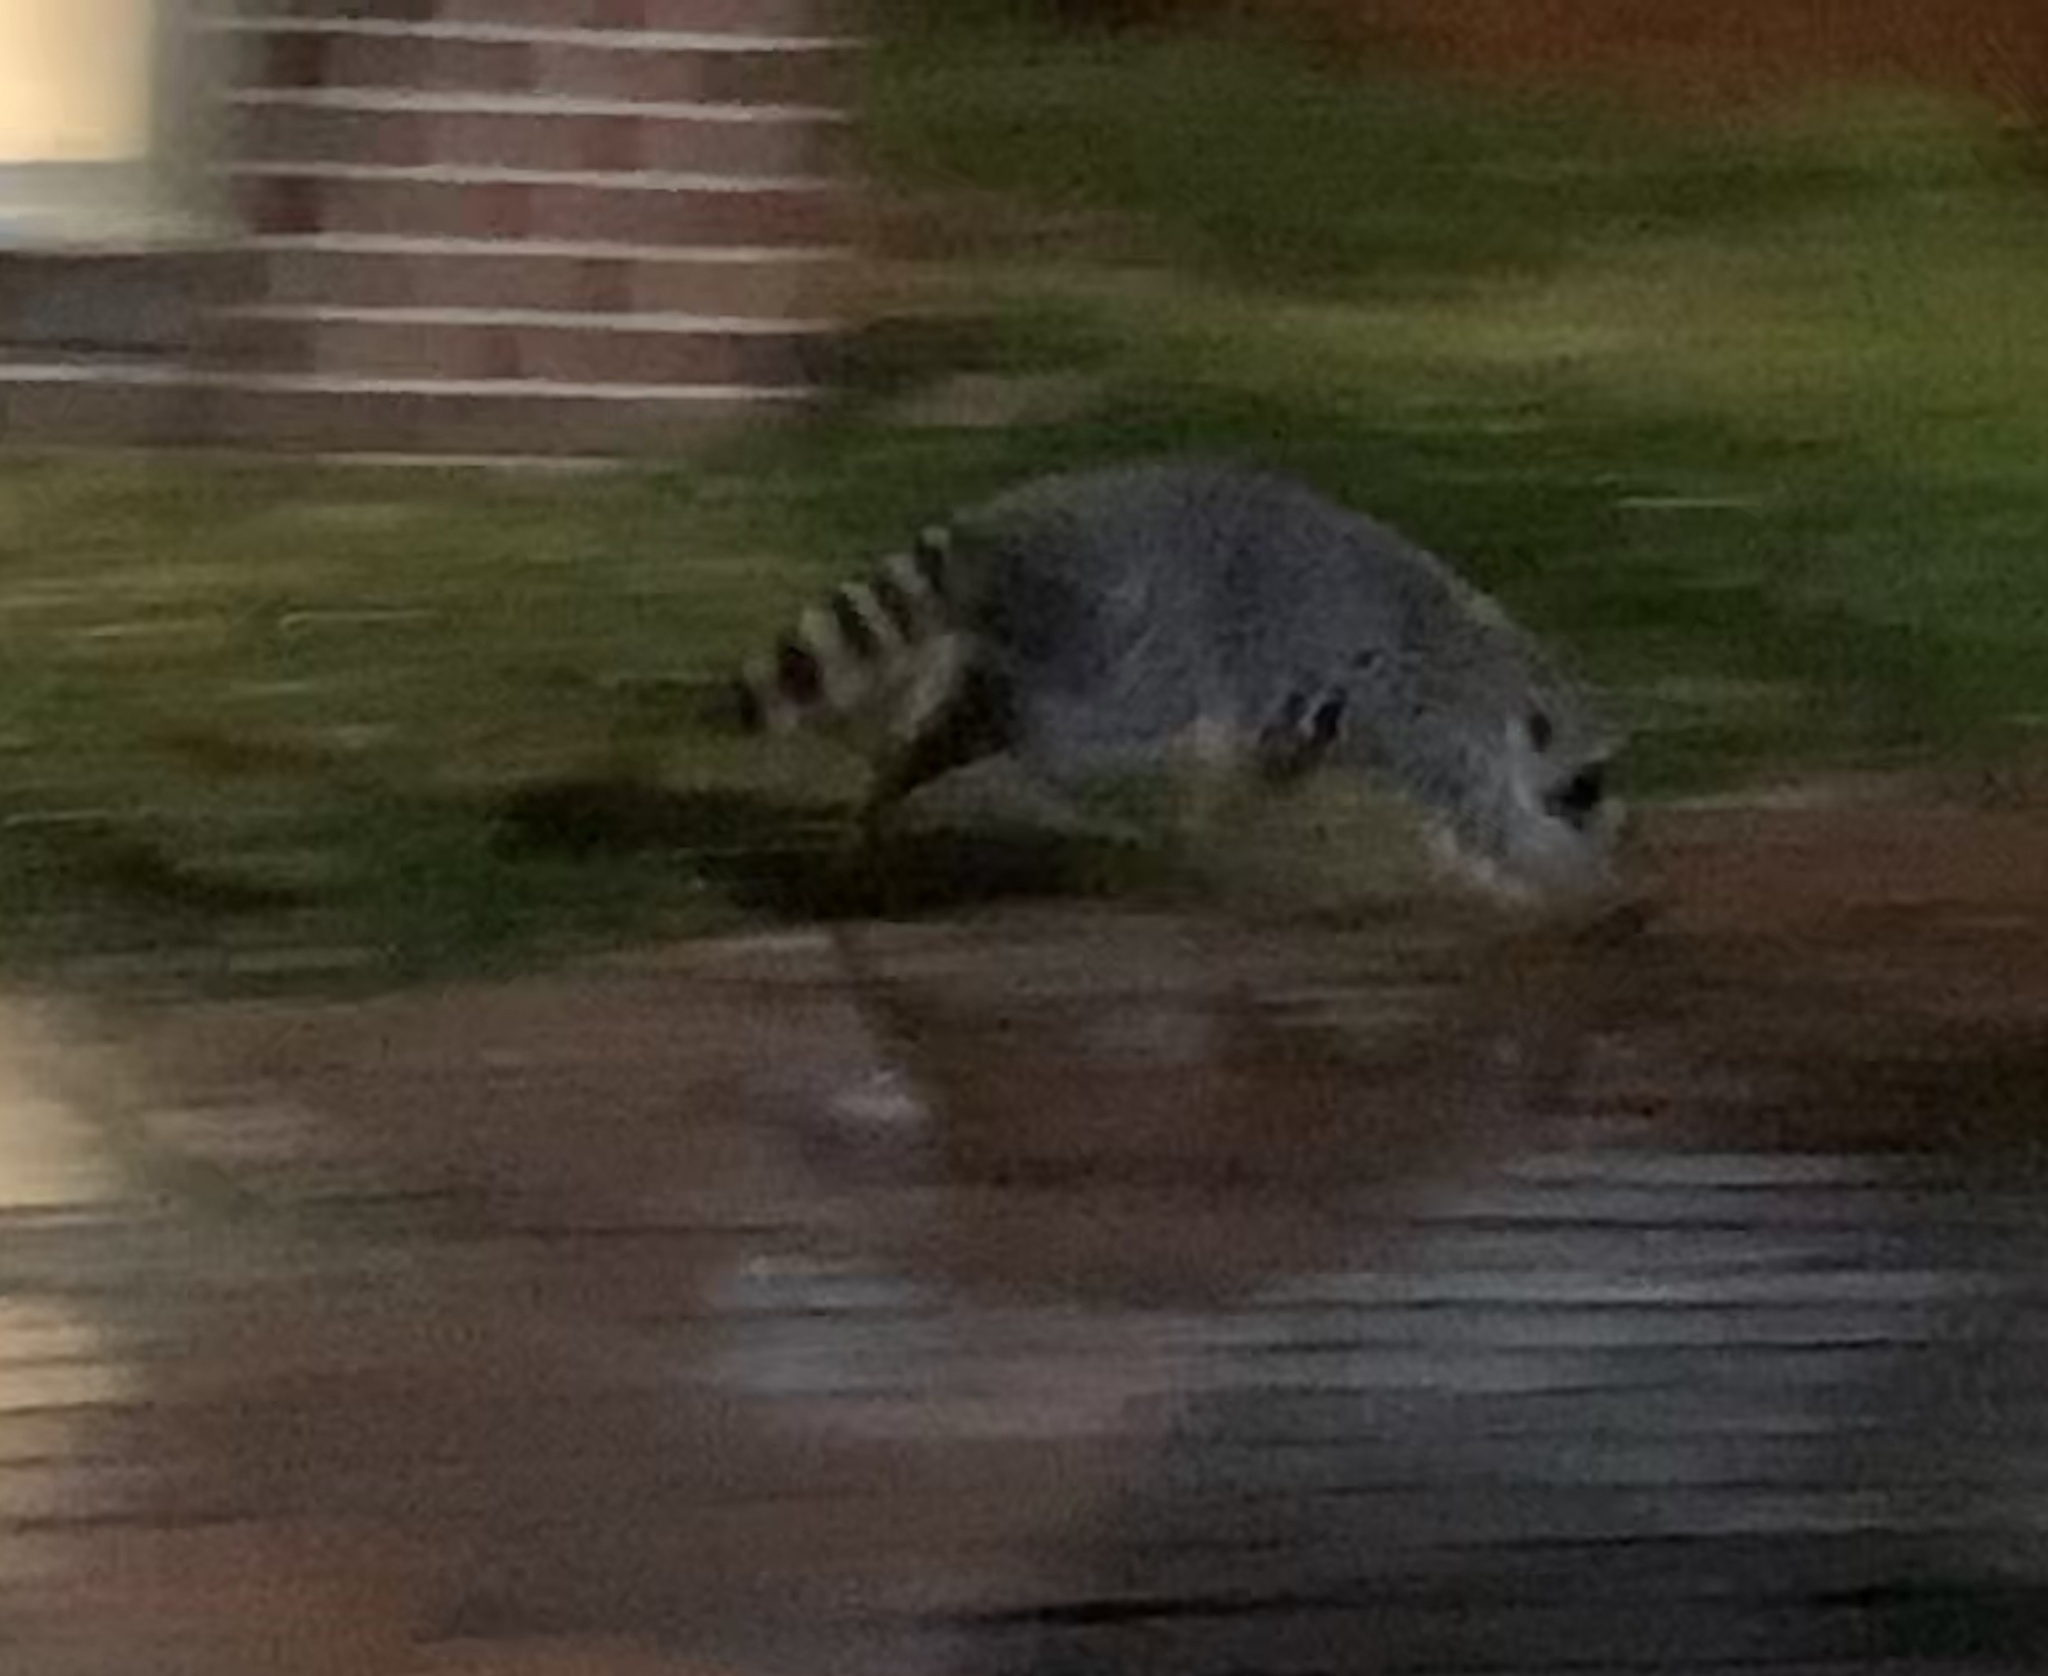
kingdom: Animalia
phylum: Chordata
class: Mammalia
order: Carnivora
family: Procyonidae
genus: Procyon
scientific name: Procyon lotor
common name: Raccoon
